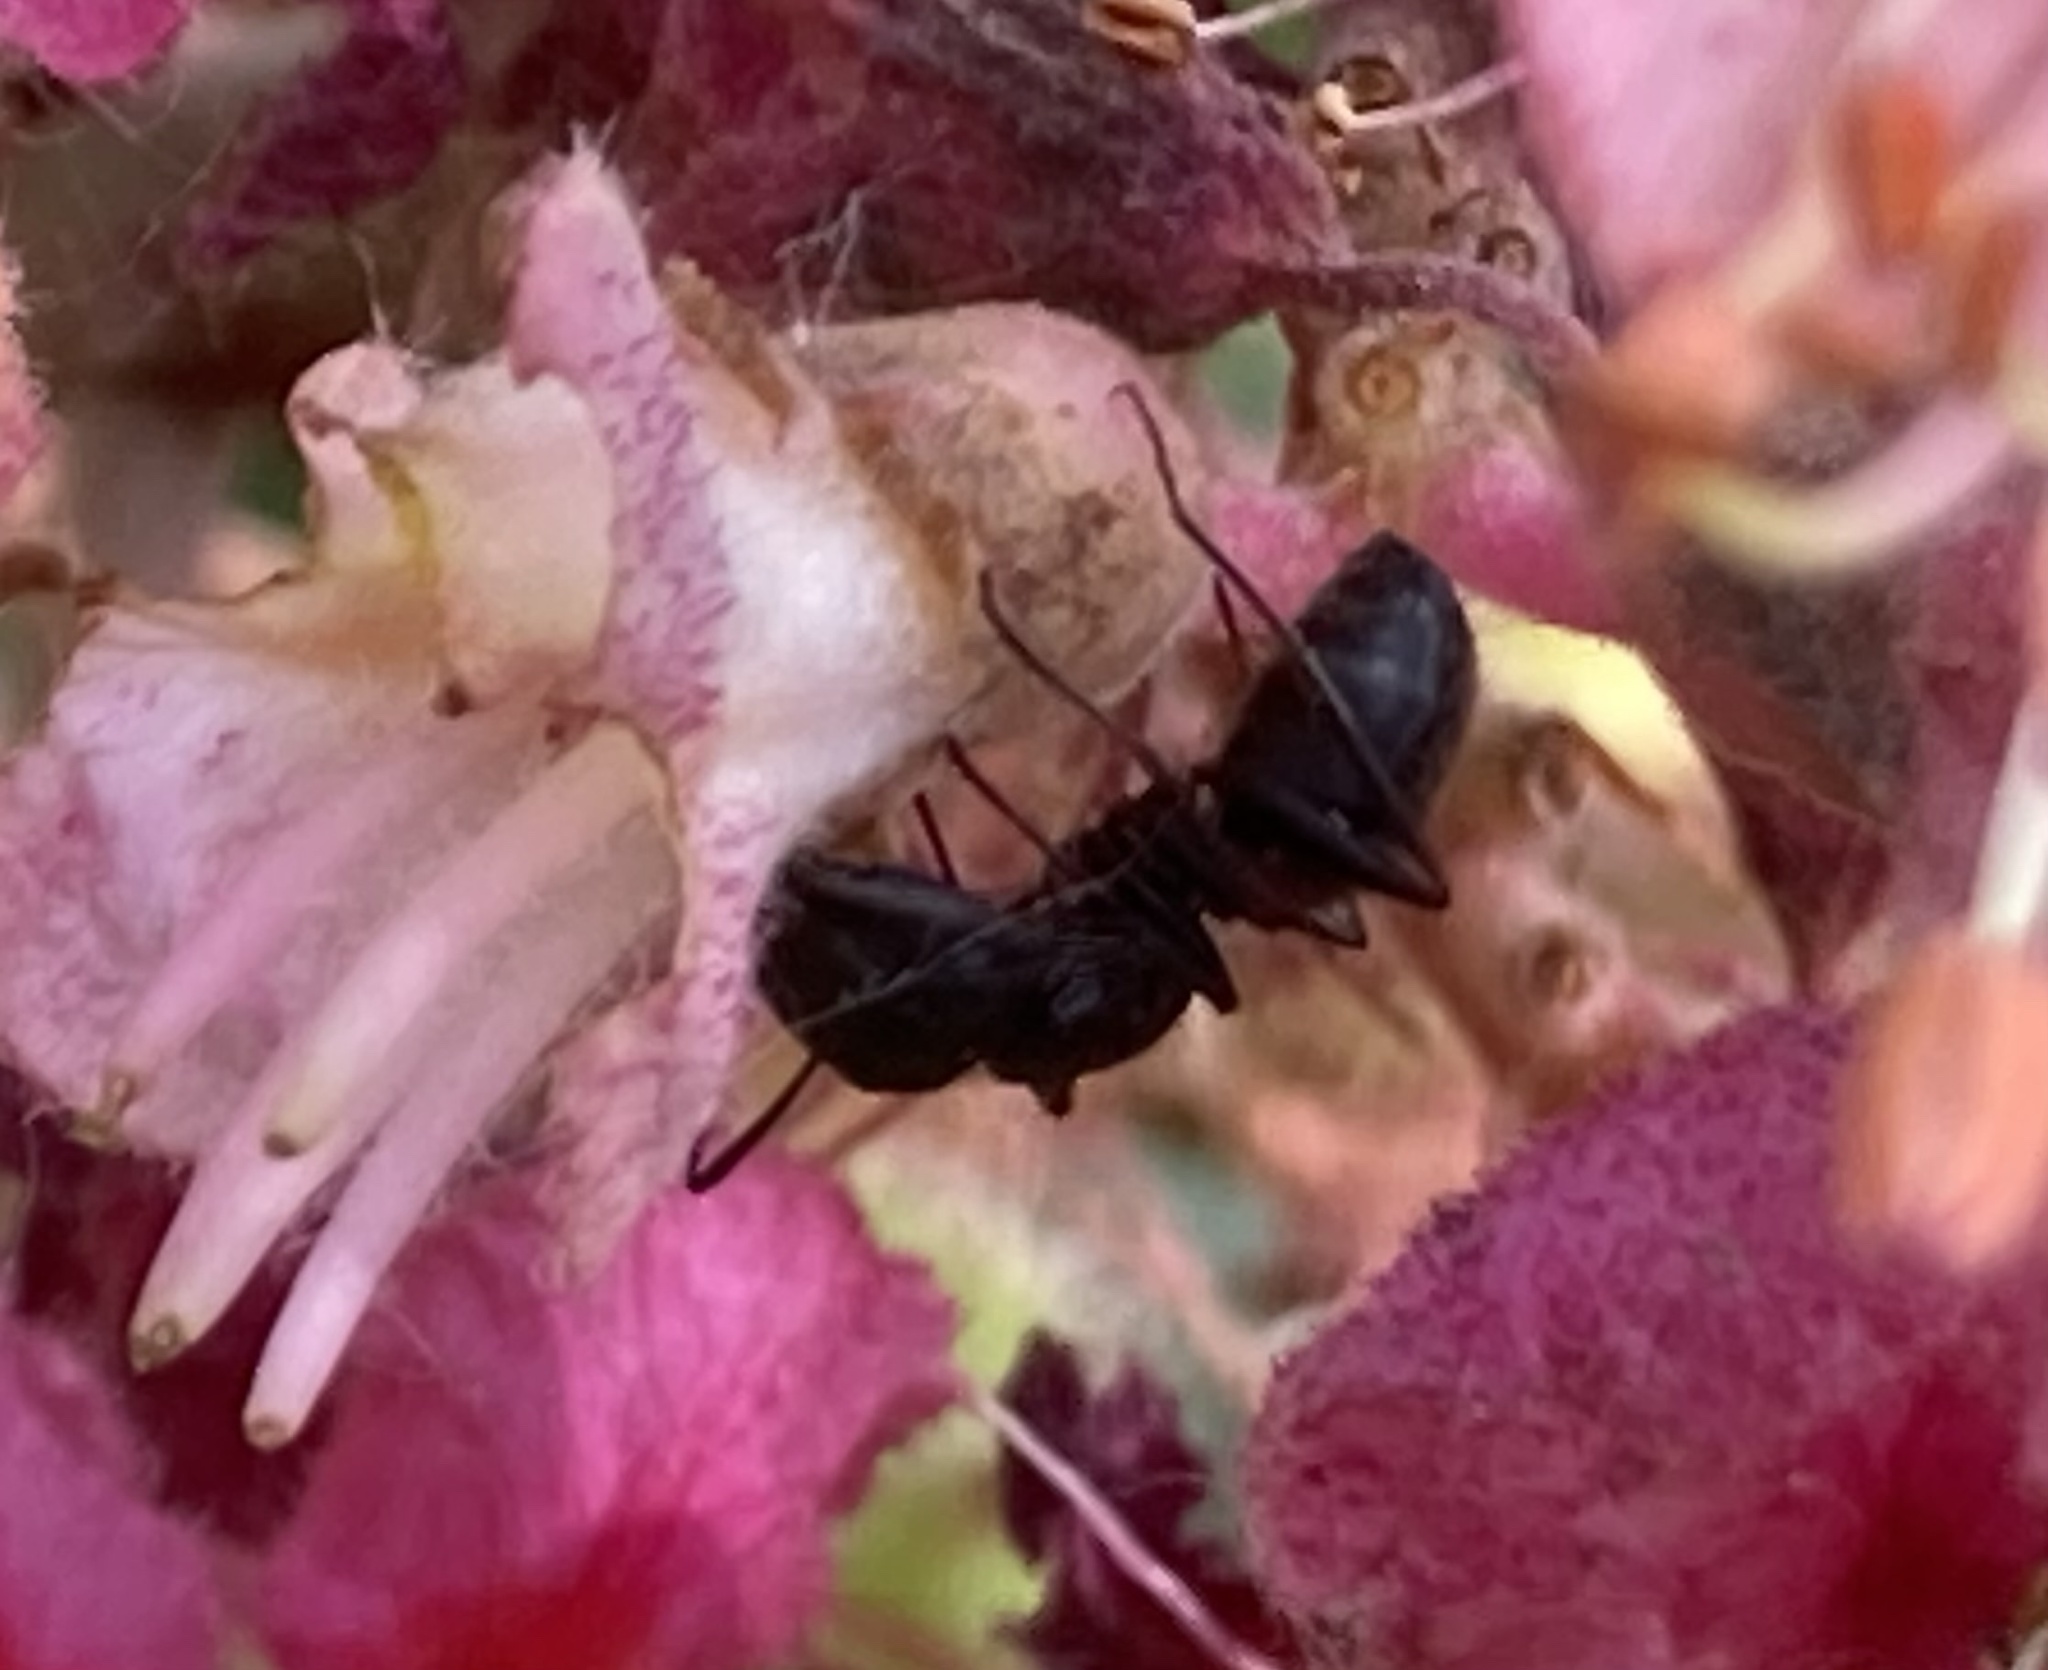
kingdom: Animalia
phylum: Arthropoda
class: Insecta
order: Hymenoptera
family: Formicidae
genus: Camponotus
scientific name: Camponotus pennsylvanicus
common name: Black carpenter ant
